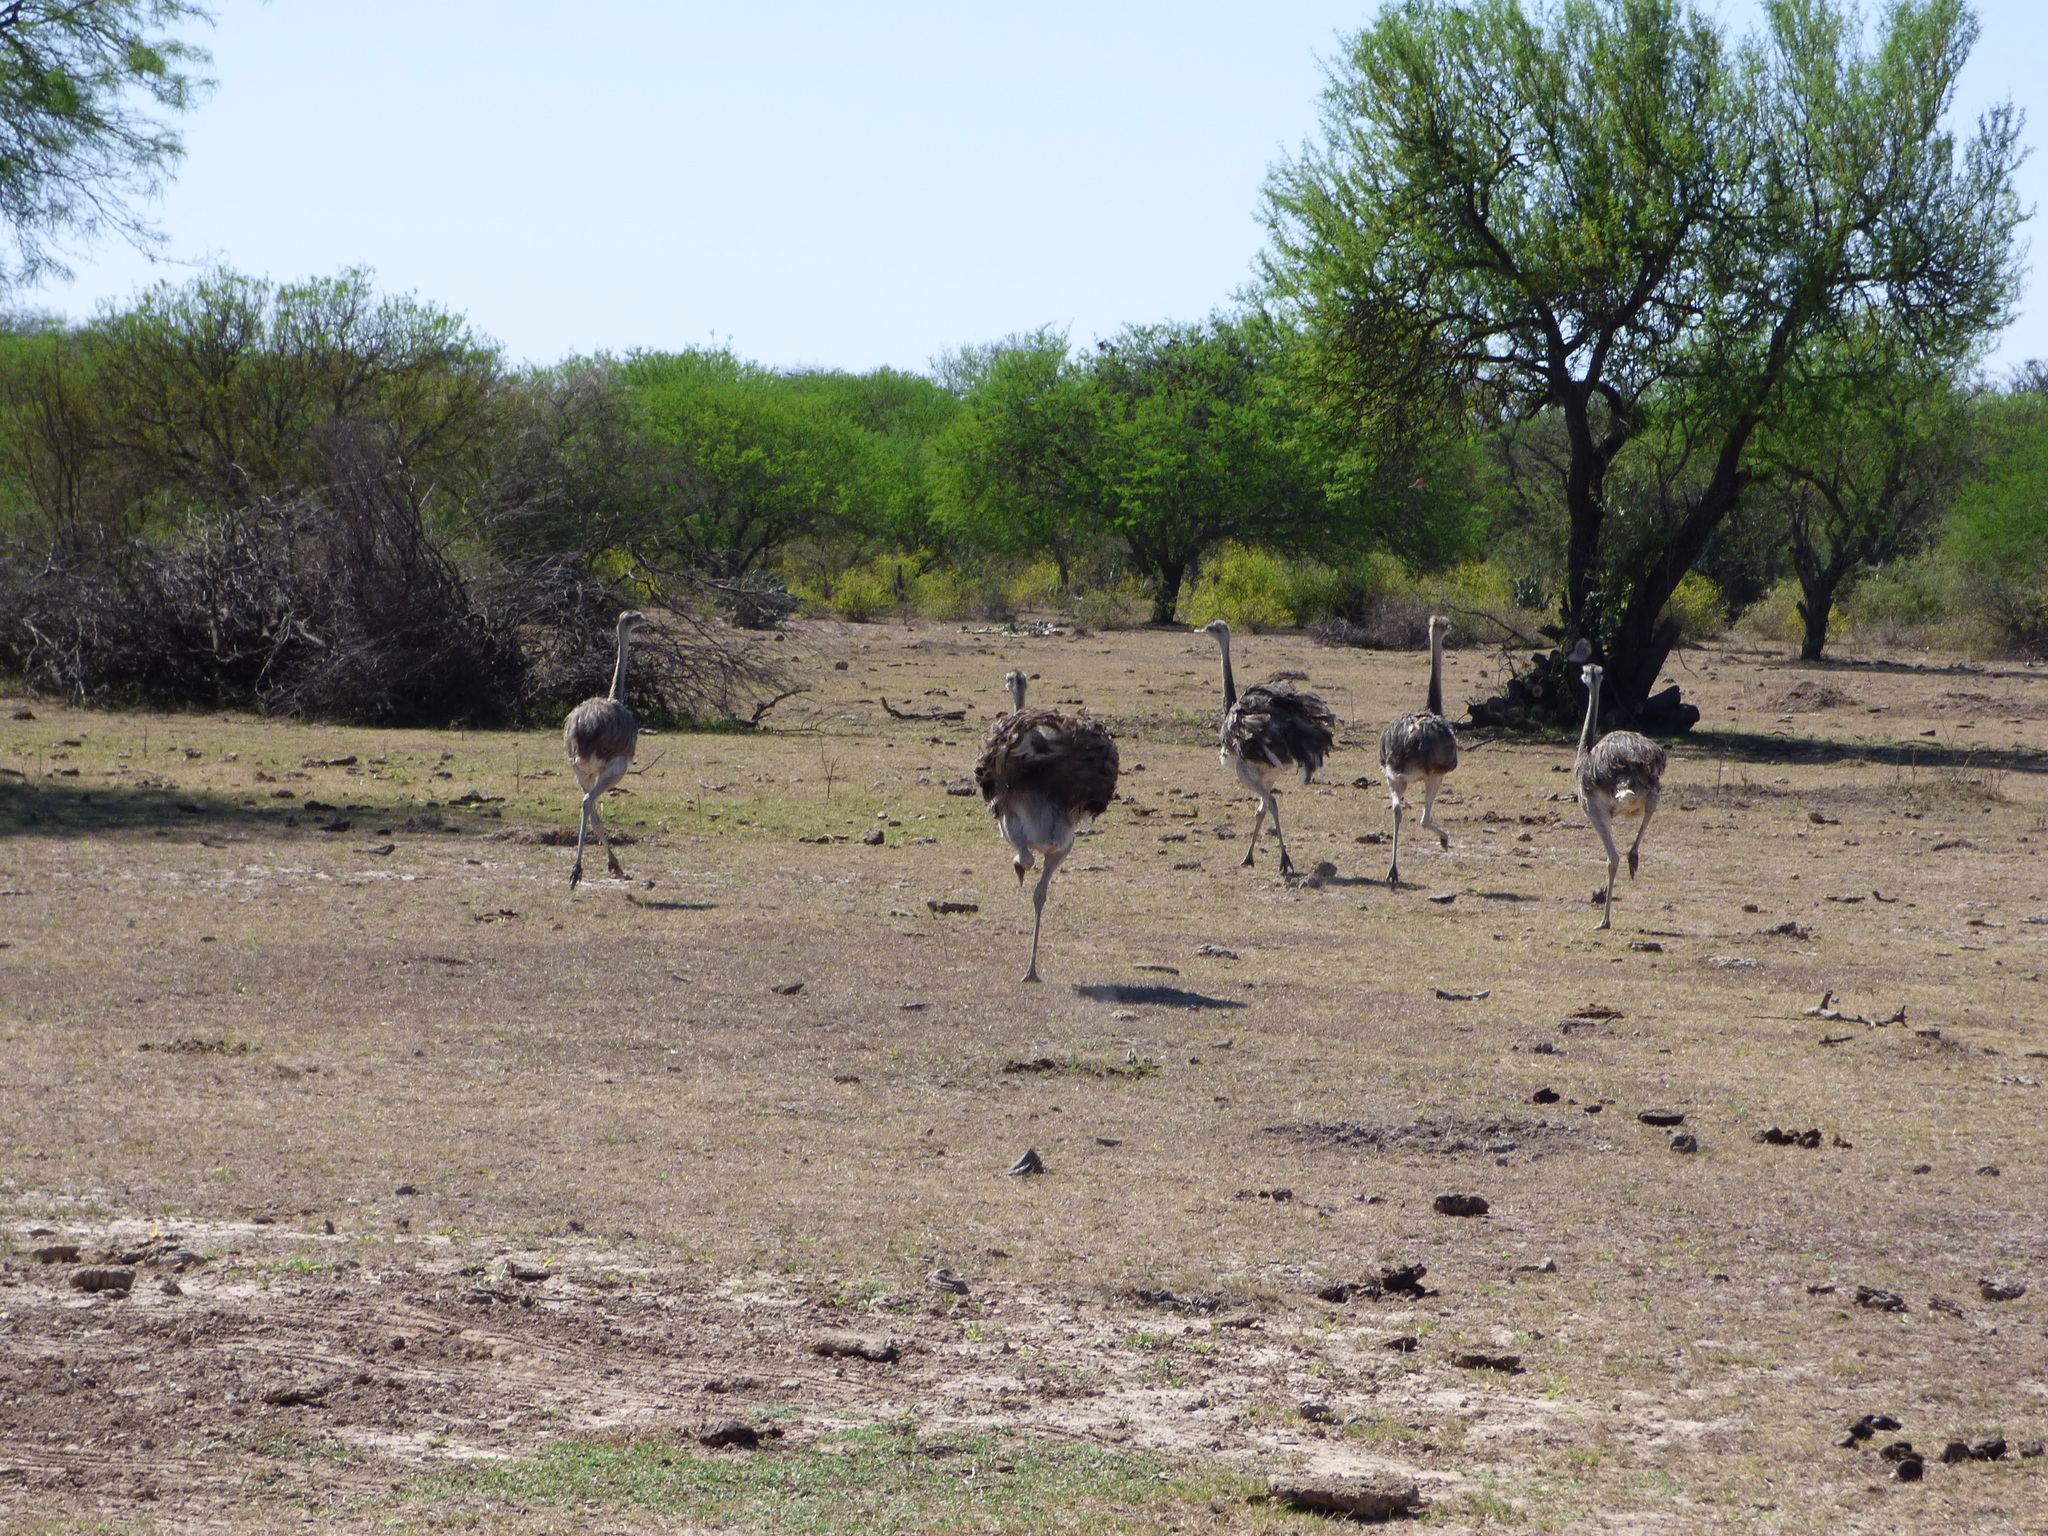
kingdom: Animalia
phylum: Chordata
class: Aves
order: Rheiformes
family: Rheidae
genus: Rhea
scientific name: Rhea americana
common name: Greater rhea
